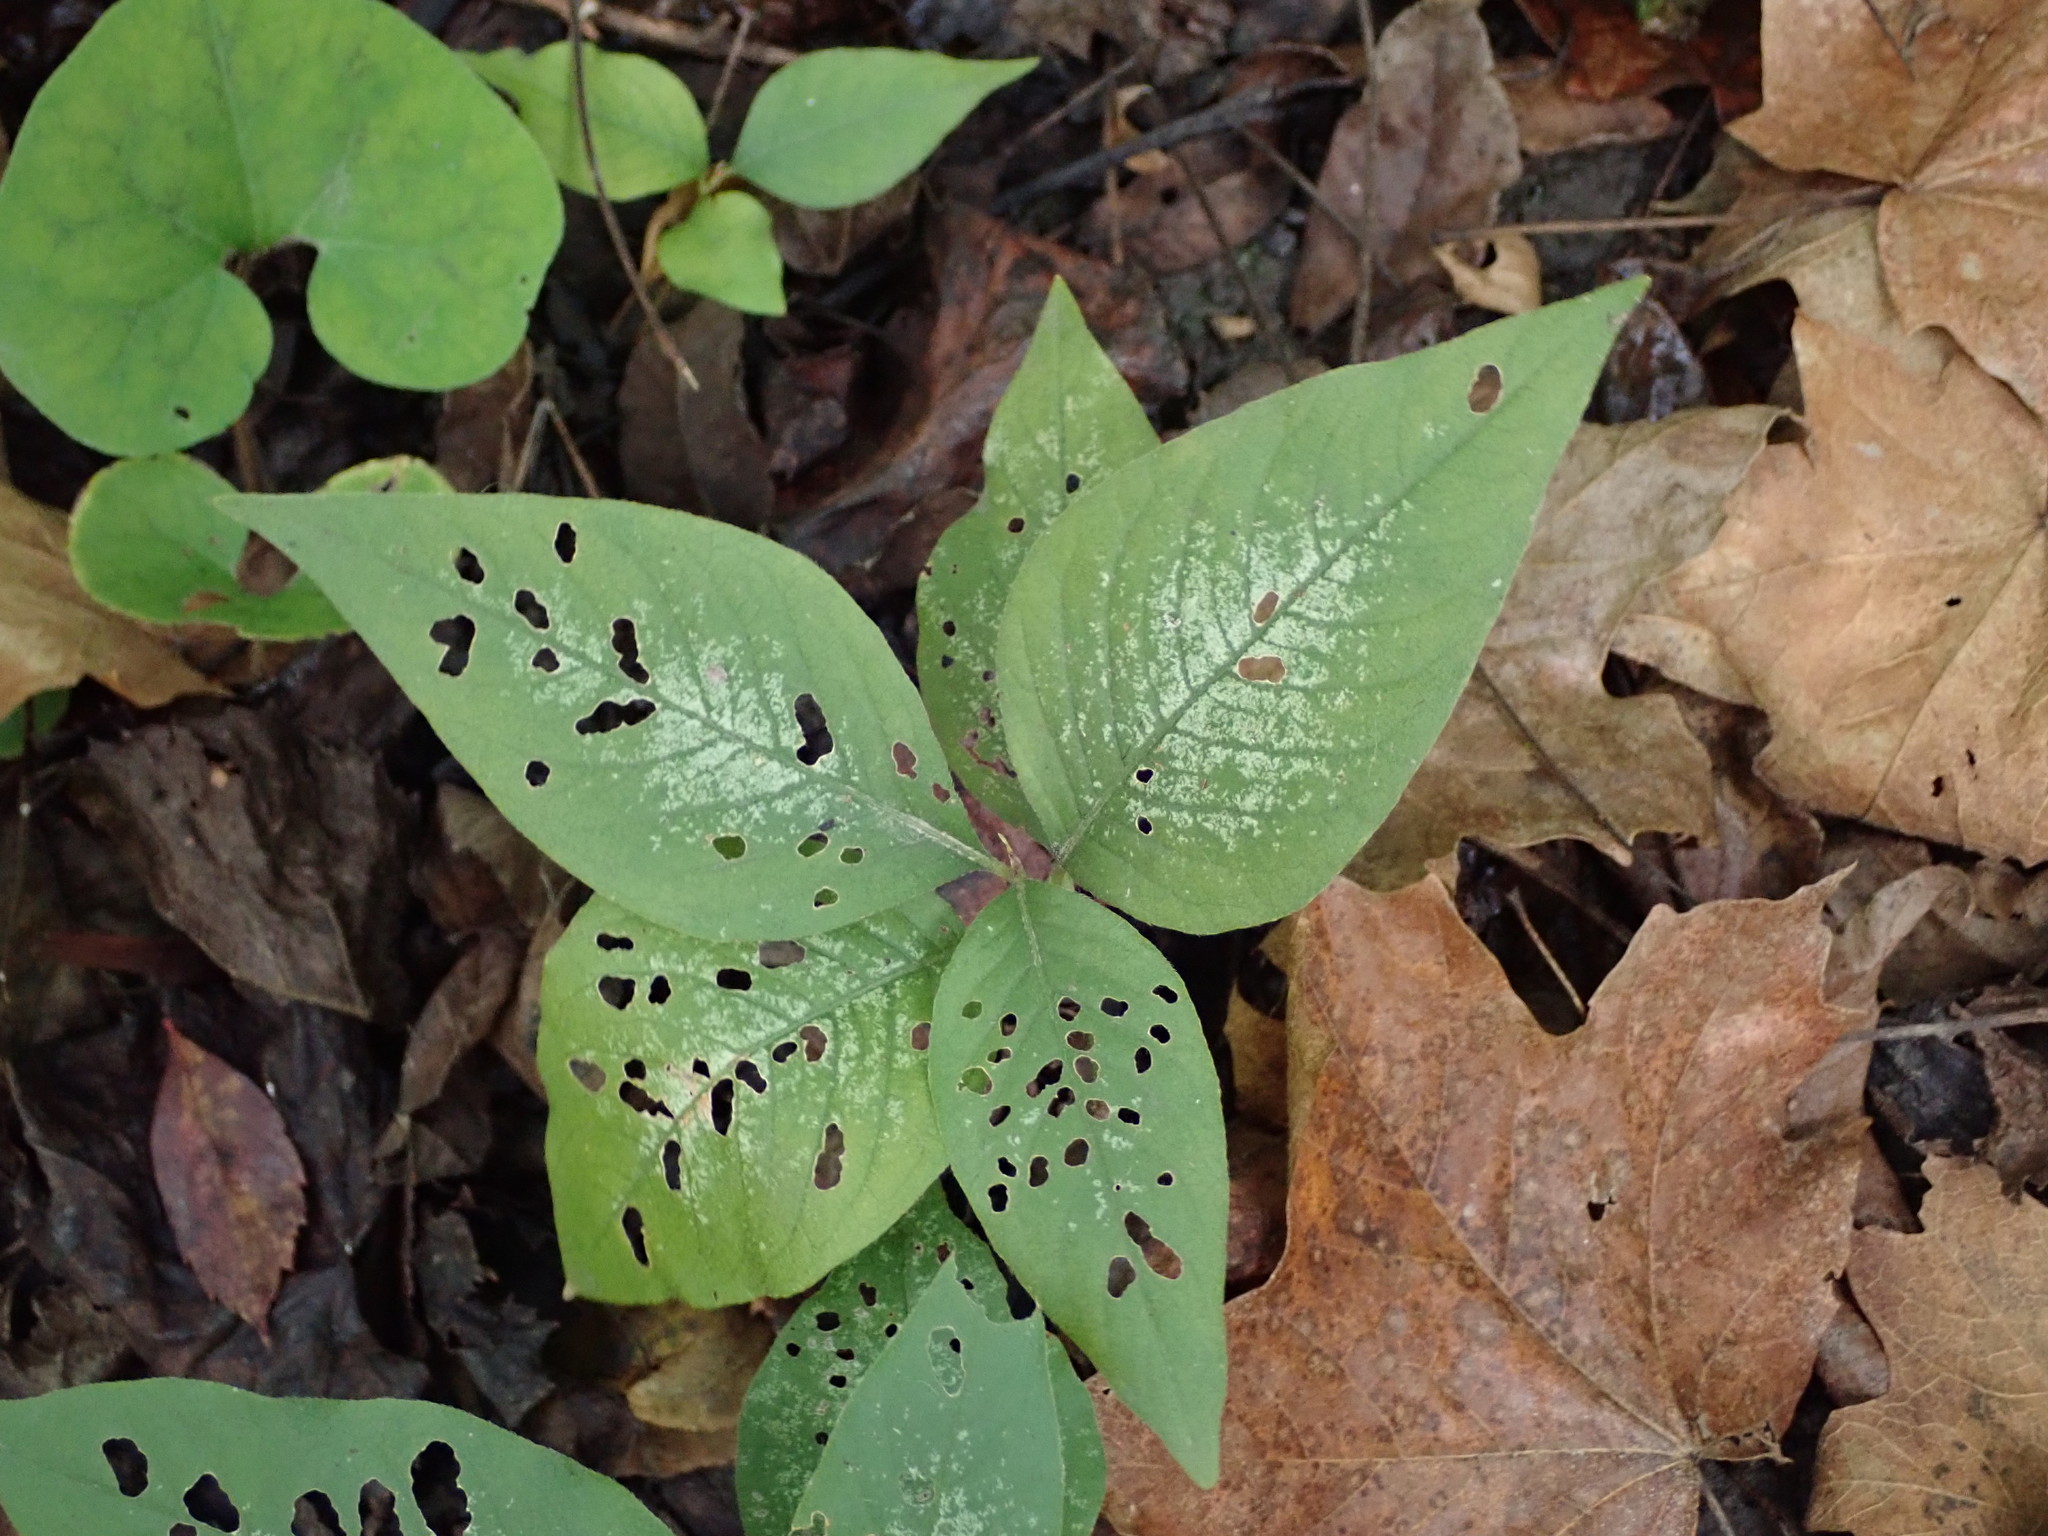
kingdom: Plantae
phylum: Tracheophyta
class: Magnoliopsida
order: Caryophyllales
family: Polygonaceae
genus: Persicaria
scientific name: Persicaria virginiana
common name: Jumpseed
